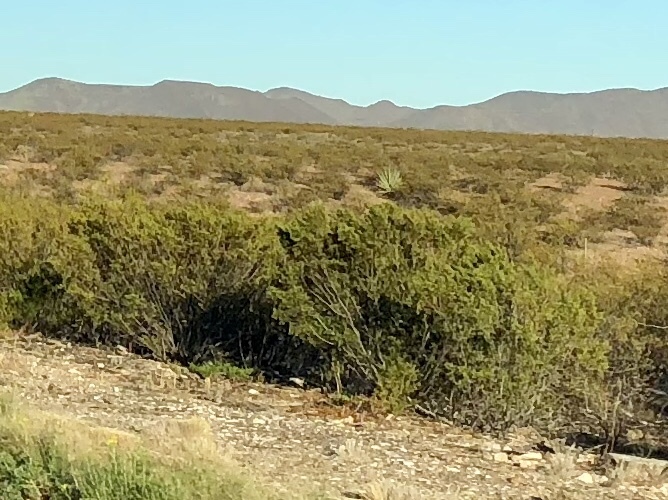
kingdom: Plantae
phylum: Tracheophyta
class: Magnoliopsida
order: Zygophyllales
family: Zygophyllaceae
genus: Larrea
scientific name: Larrea tridentata
